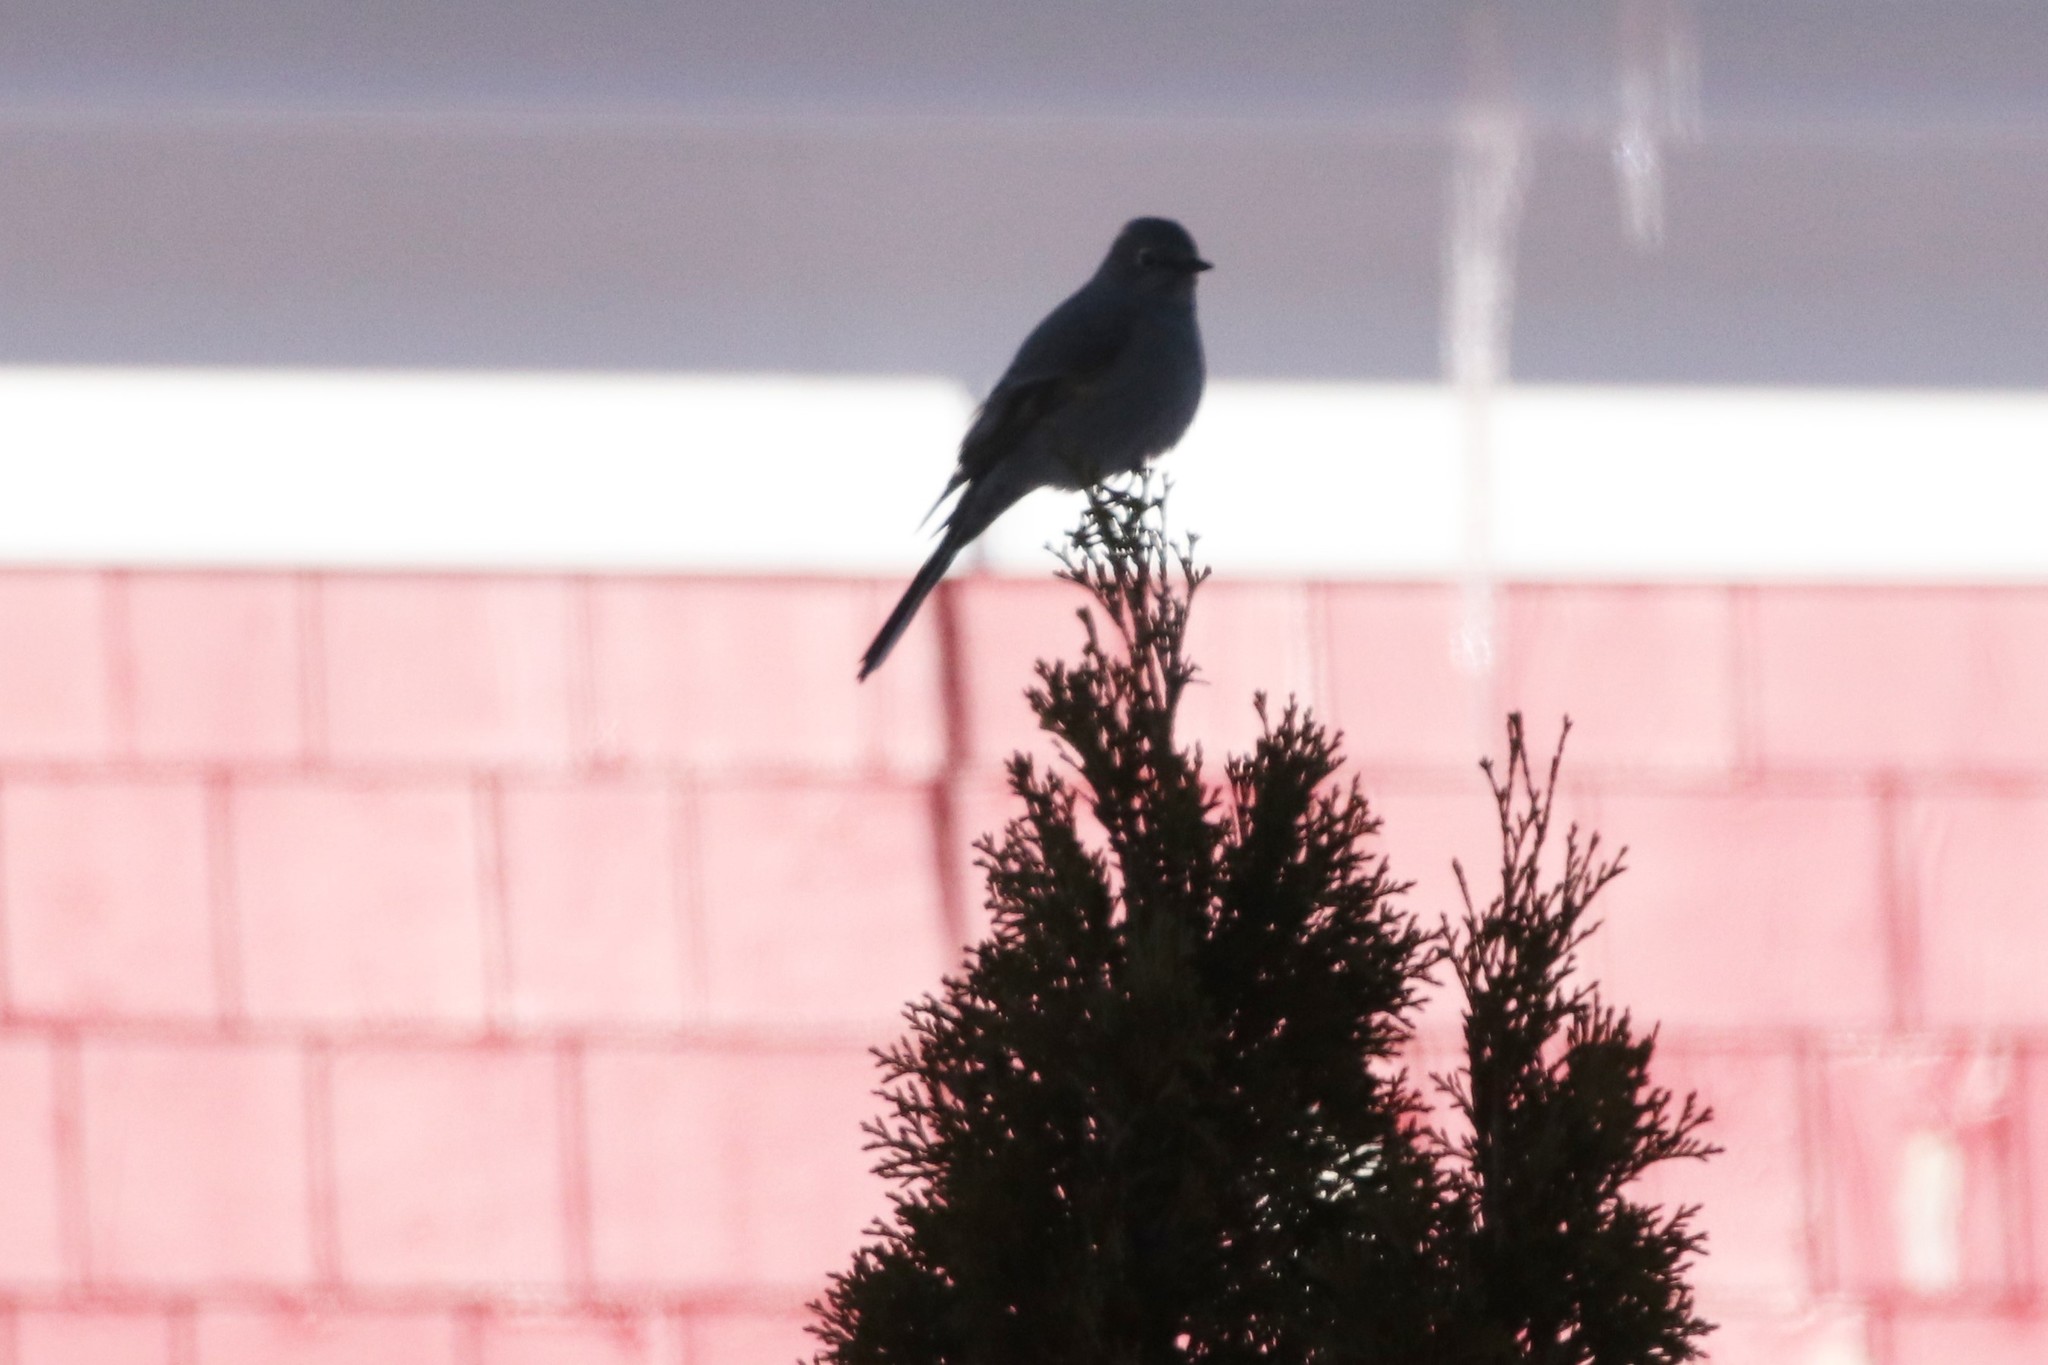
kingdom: Animalia
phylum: Chordata
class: Aves
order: Passeriformes
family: Turdidae
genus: Myadestes
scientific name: Myadestes townsendi
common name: Townsend's solitaire
